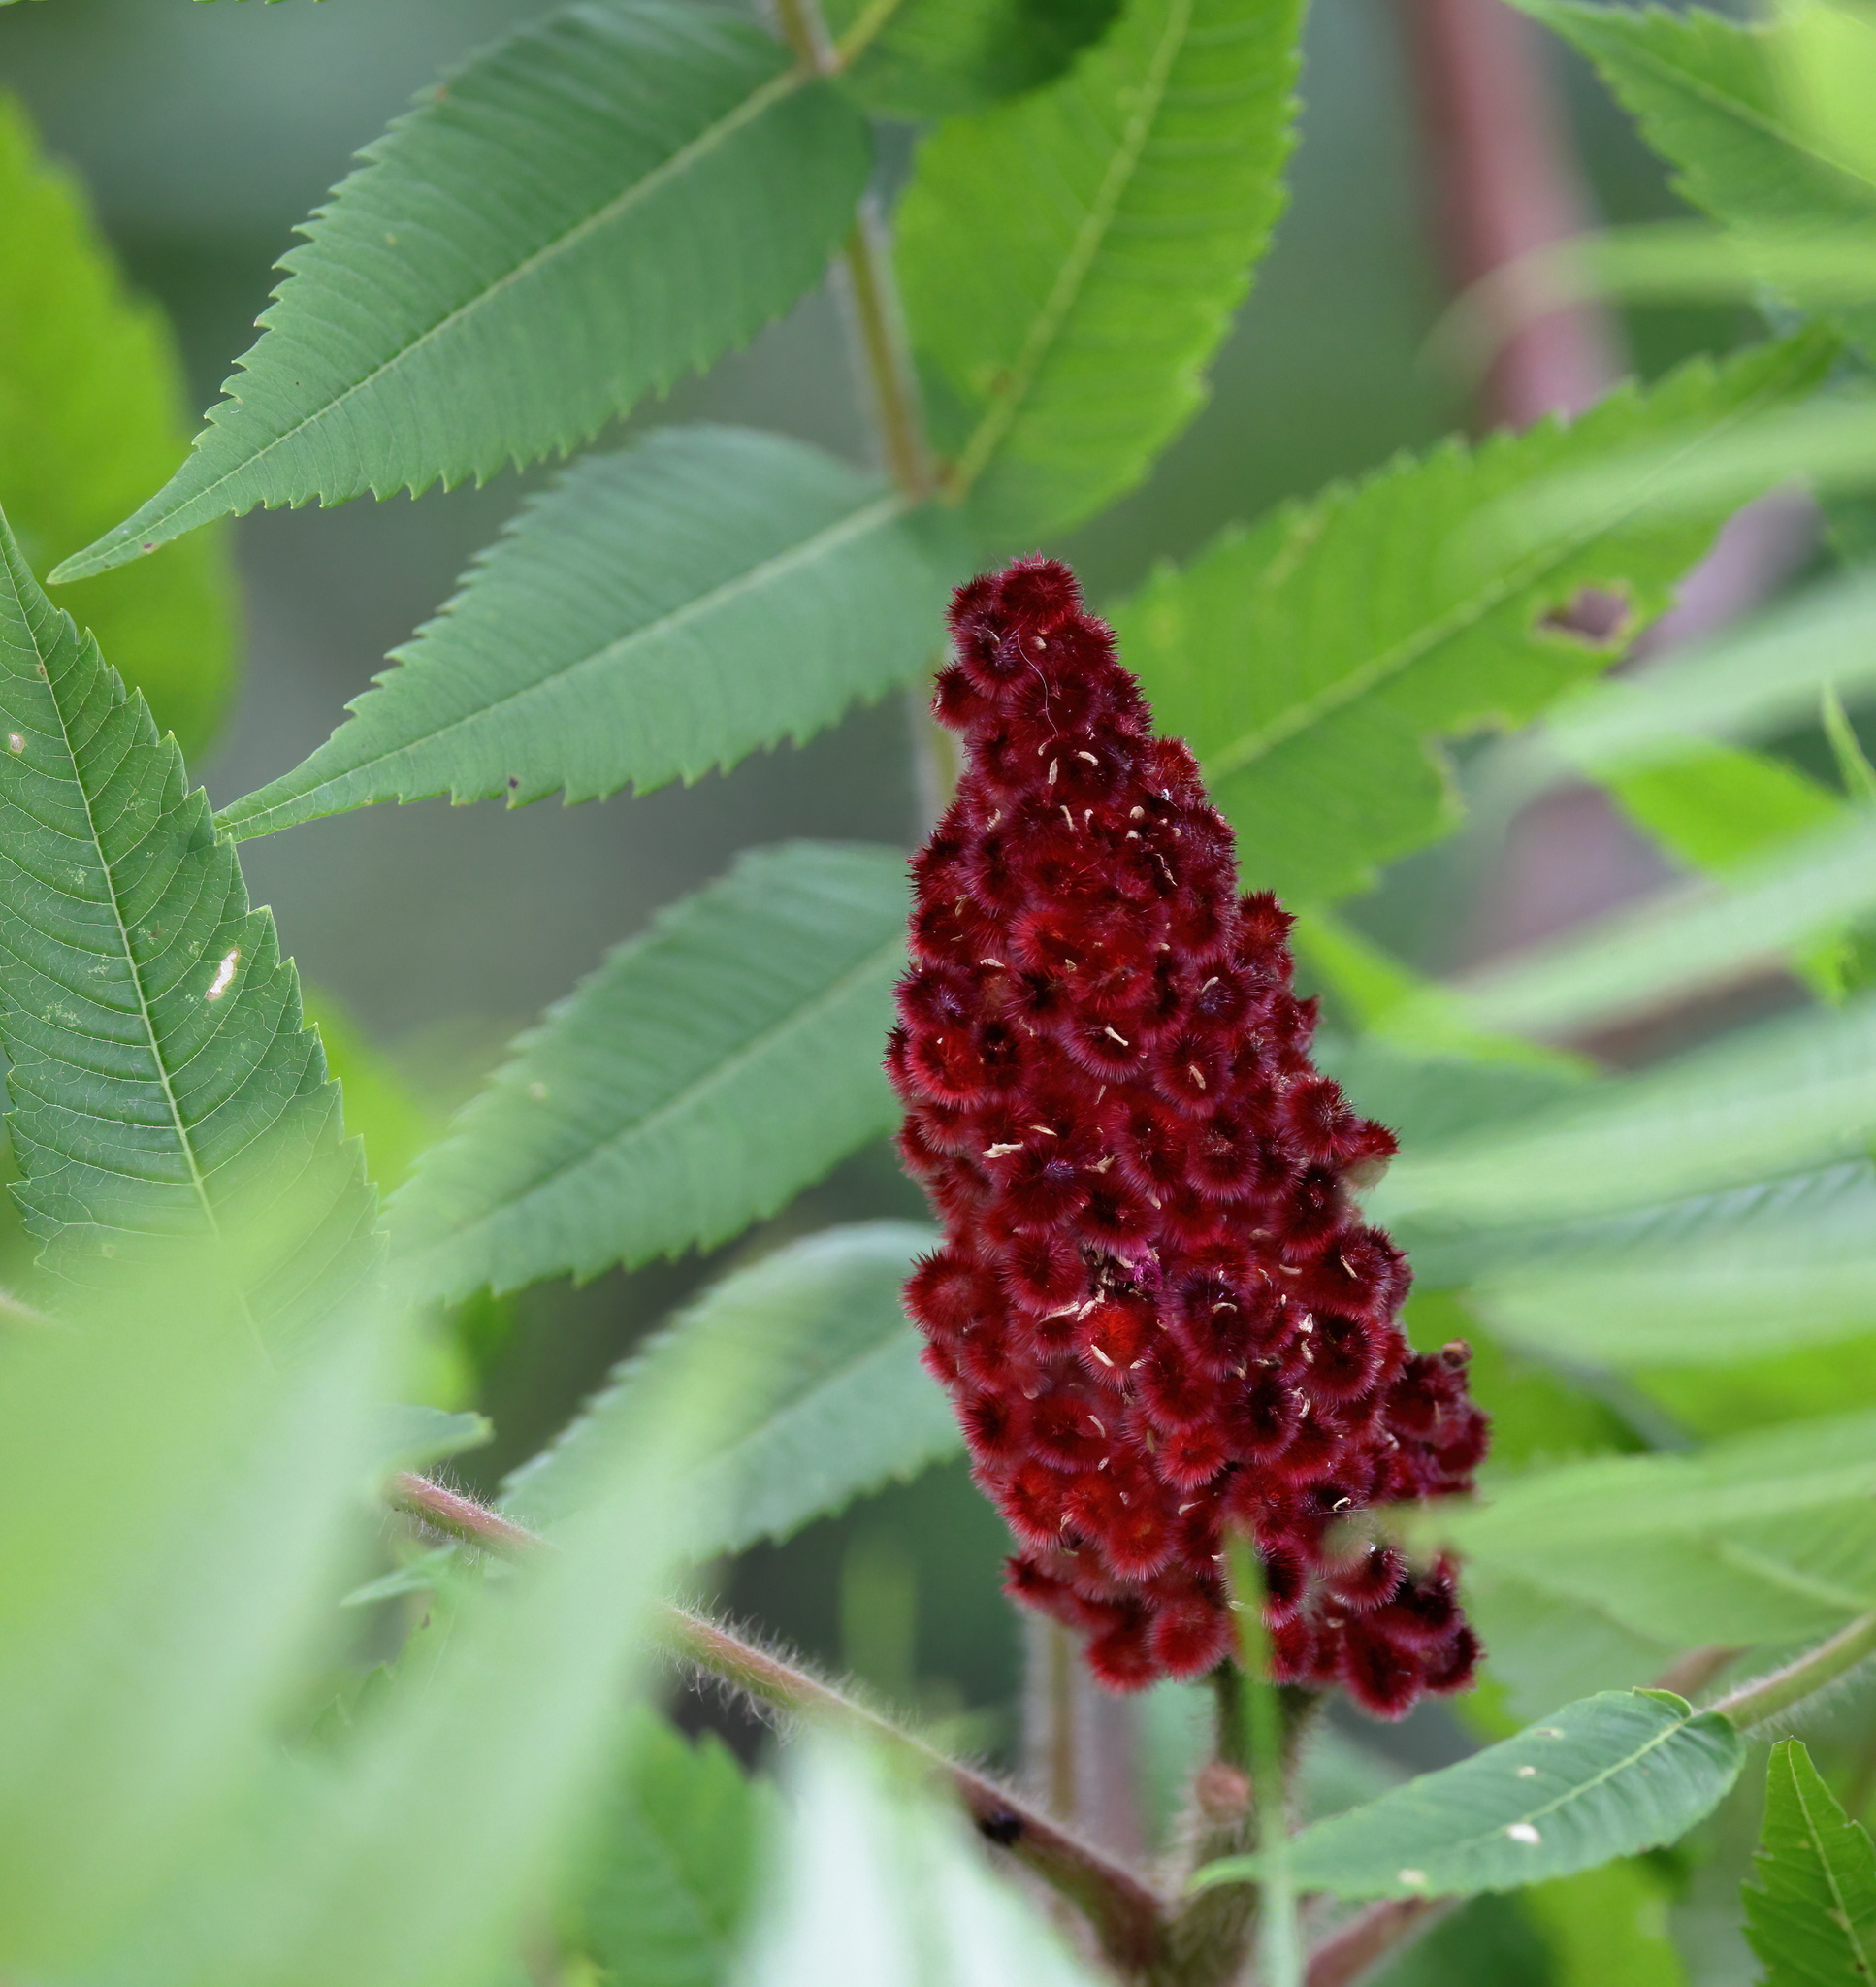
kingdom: Plantae
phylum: Tracheophyta
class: Magnoliopsida
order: Sapindales
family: Anacardiaceae
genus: Rhus
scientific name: Rhus typhina
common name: Staghorn sumac
